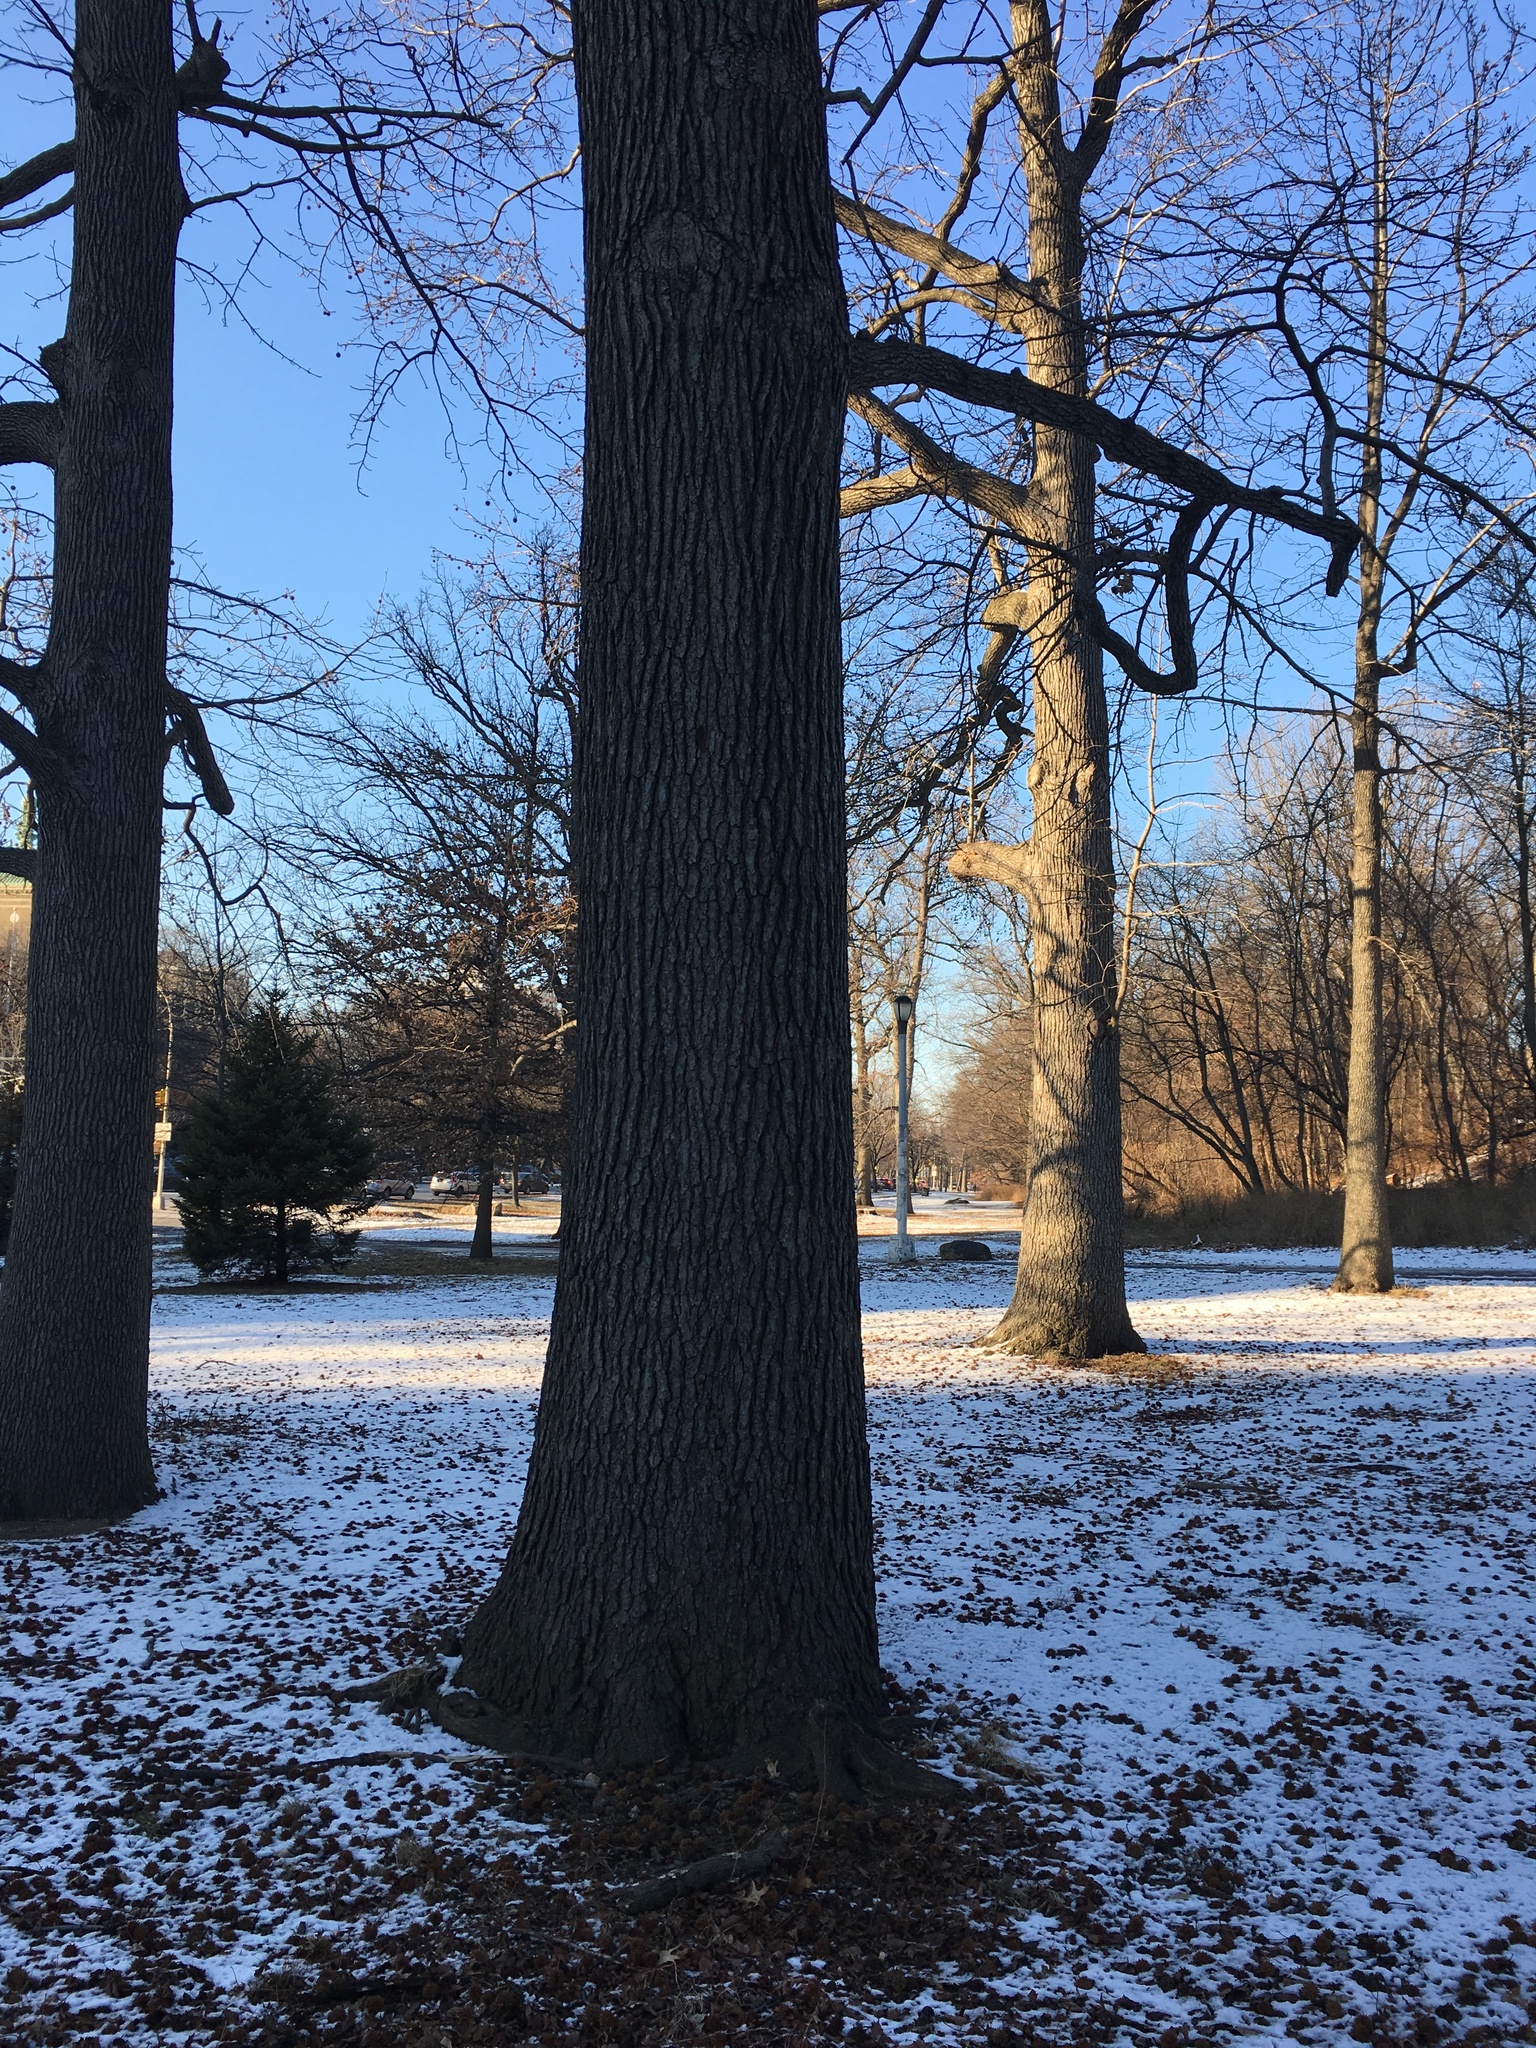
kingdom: Plantae
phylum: Tracheophyta
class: Magnoliopsida
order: Saxifragales
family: Altingiaceae
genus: Liquidambar
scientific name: Liquidambar styraciflua
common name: Sweet gum
